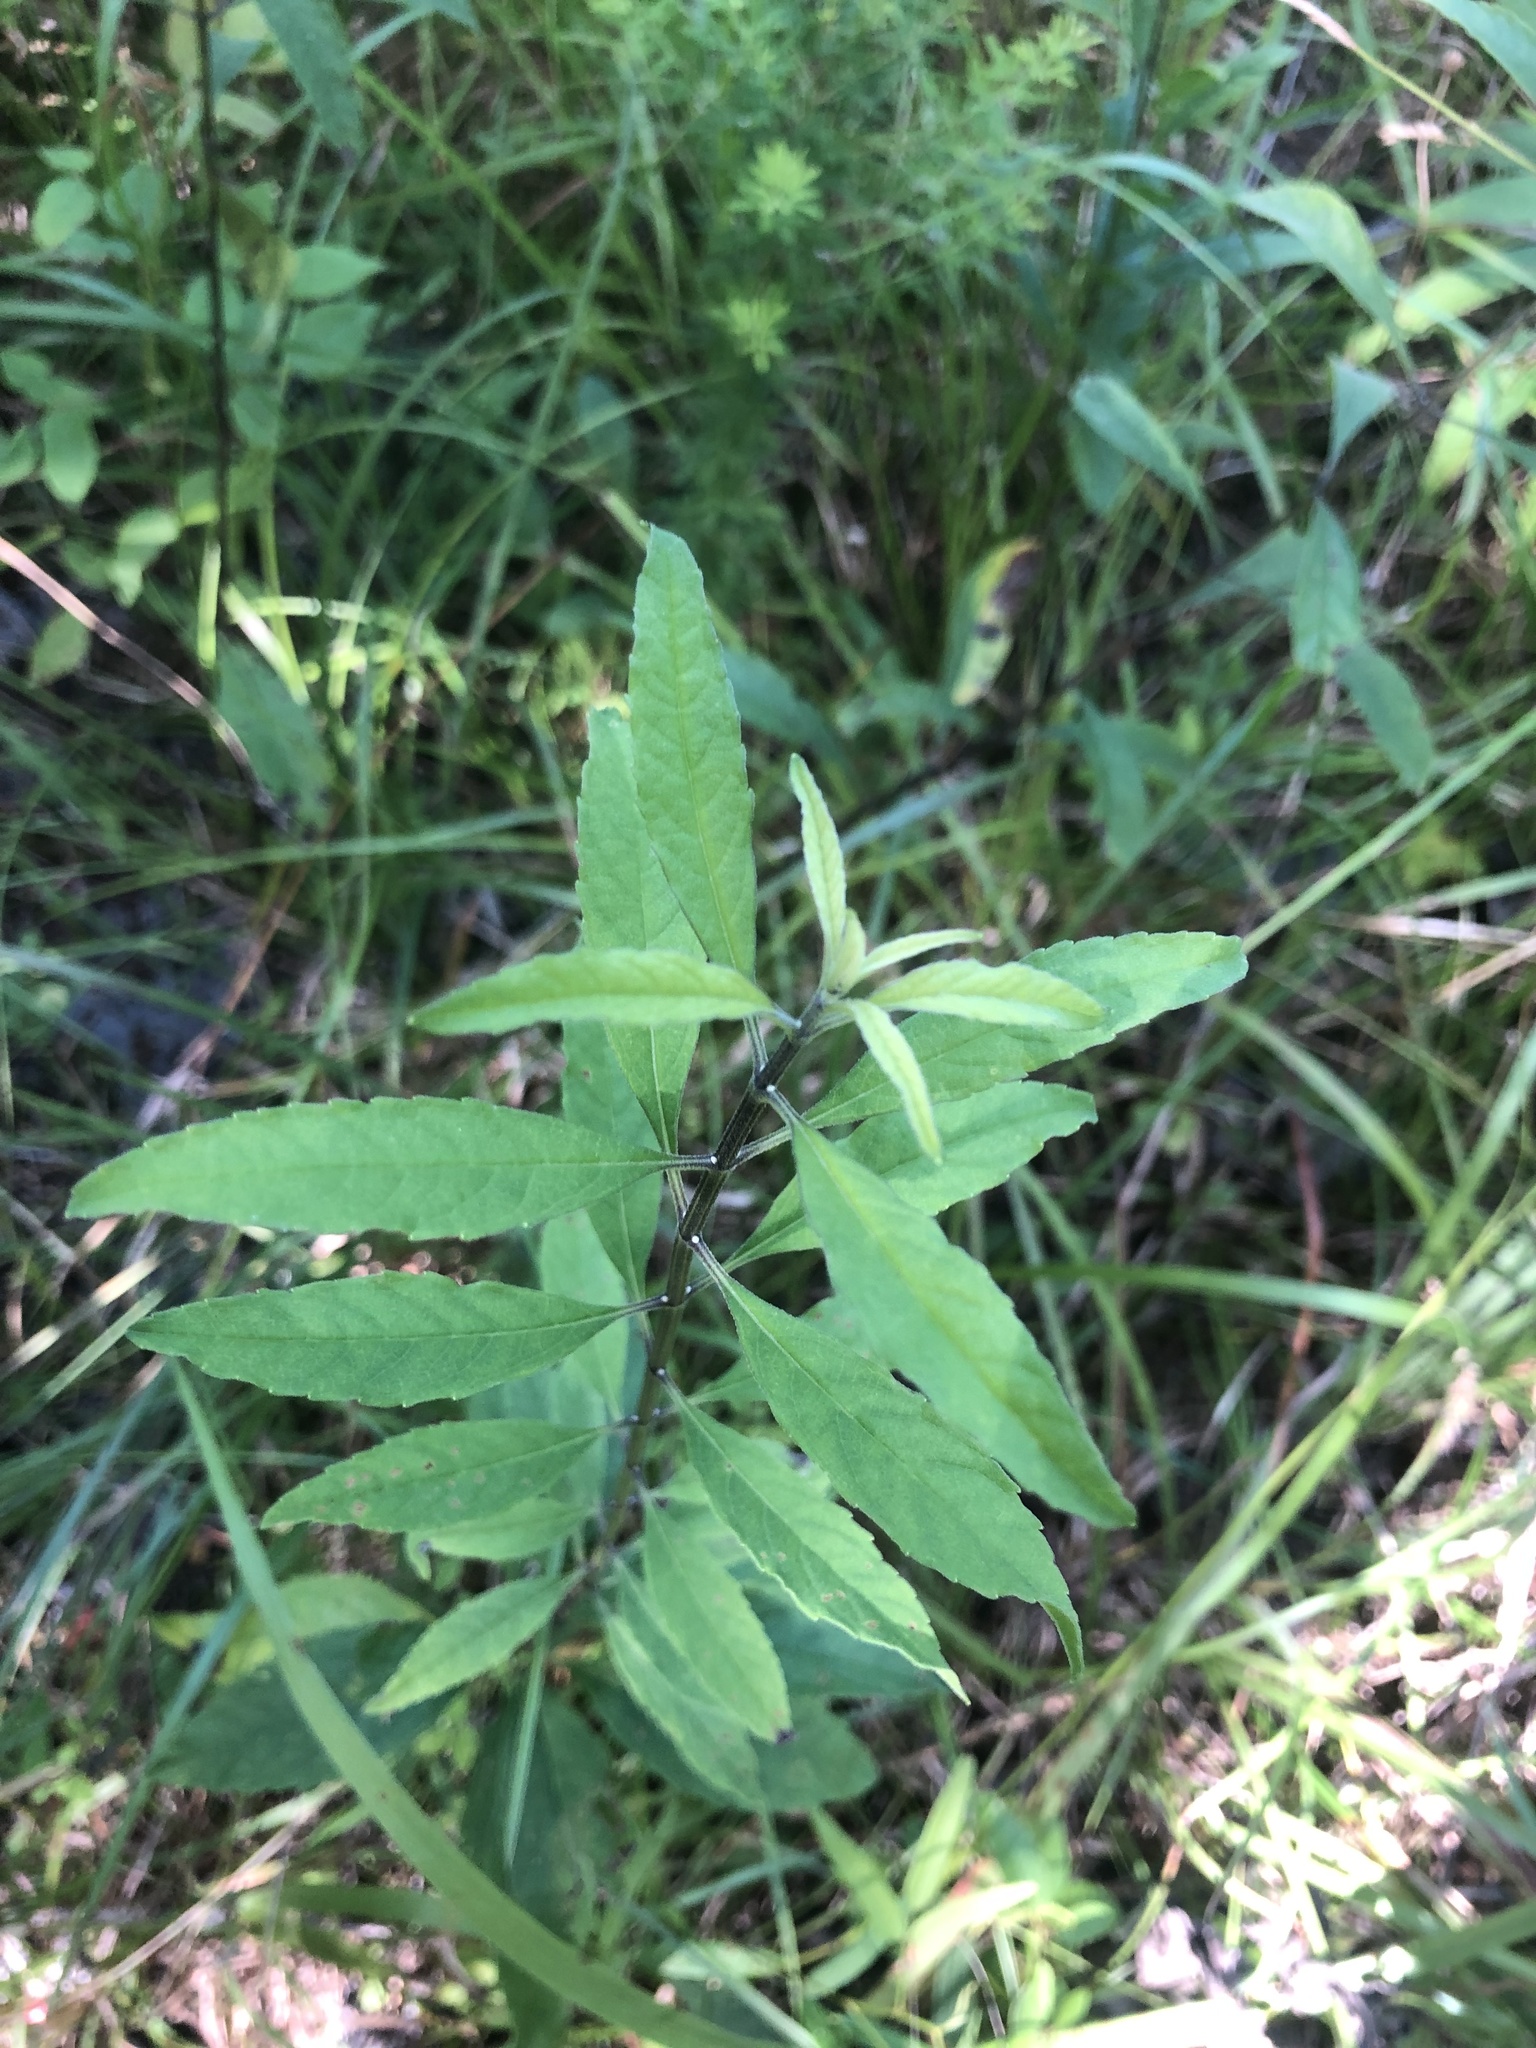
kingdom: Plantae
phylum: Tracheophyta
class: Magnoliopsida
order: Lamiales
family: Lamiaceae
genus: Salvia
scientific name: Salvia azurea
